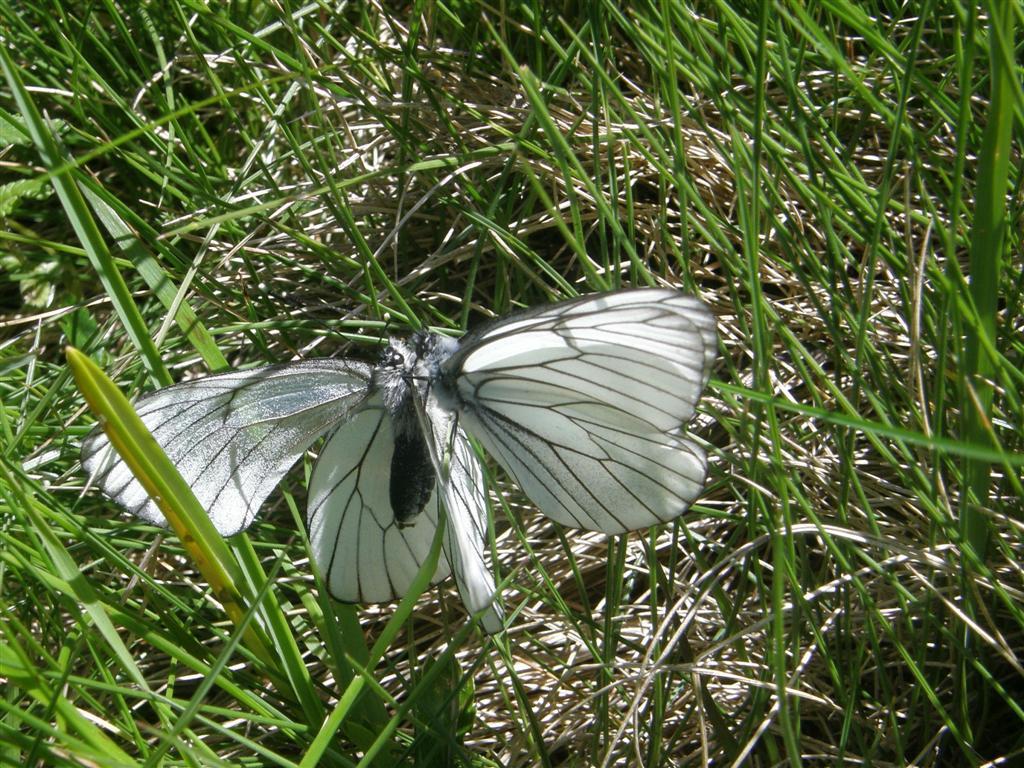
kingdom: Animalia
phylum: Arthropoda
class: Insecta
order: Lepidoptera
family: Pieridae
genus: Aporia
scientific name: Aporia crataegi
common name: Black-veined white
